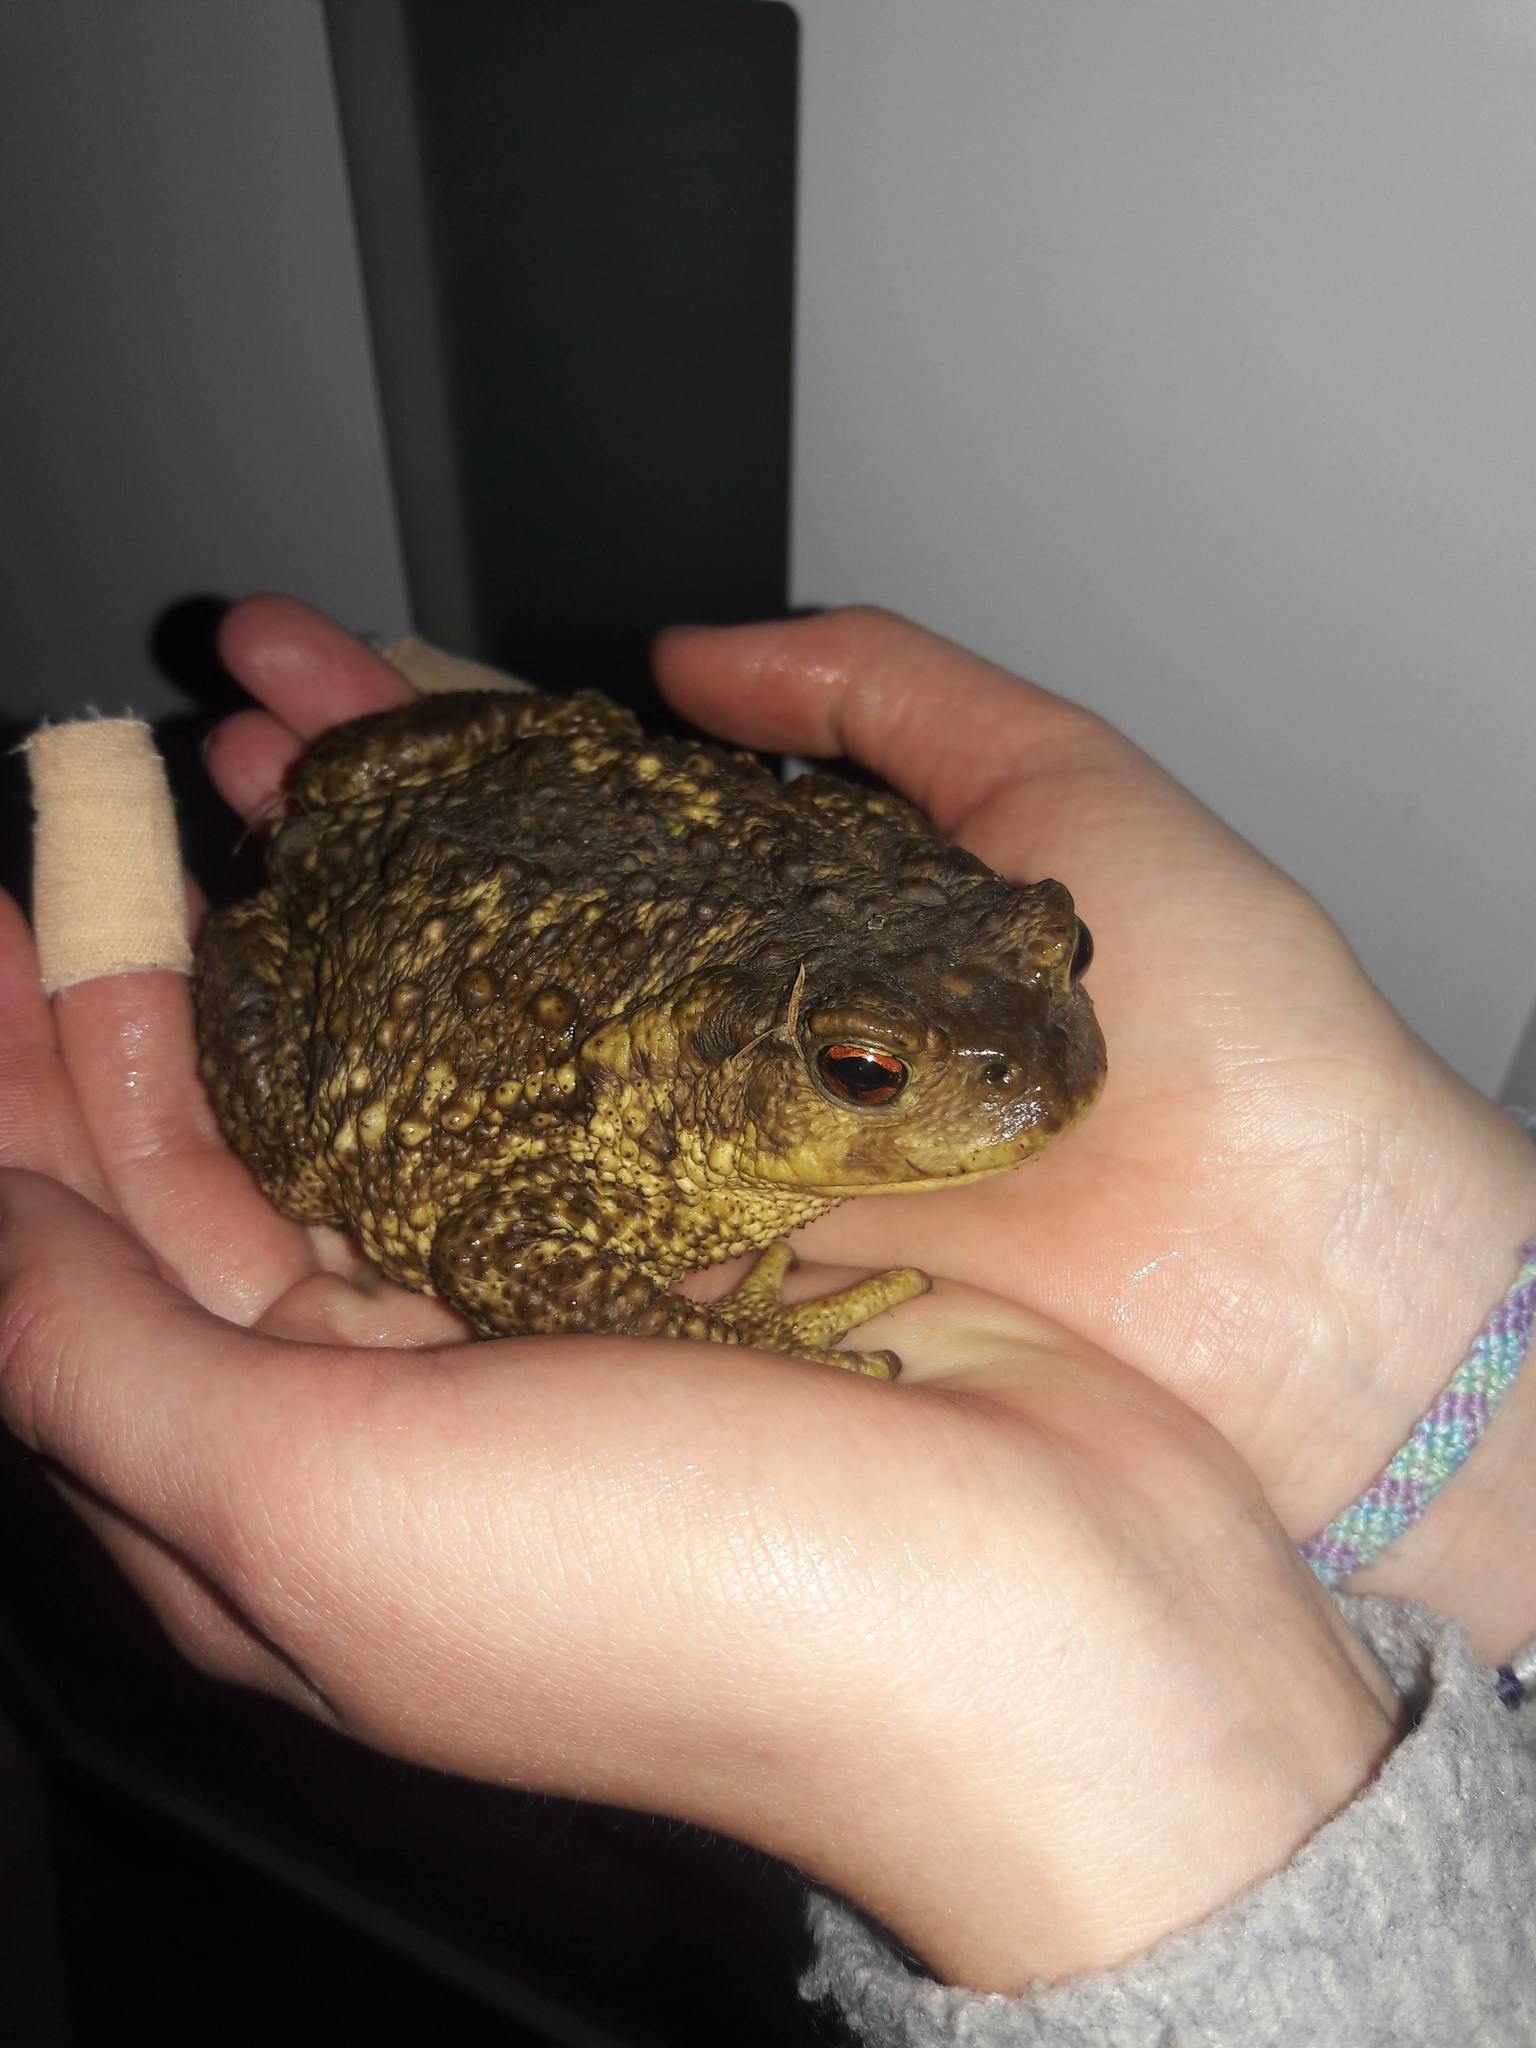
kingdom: Animalia
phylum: Chordata
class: Amphibia
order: Anura
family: Bufonidae
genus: Bufo
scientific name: Bufo spinosus
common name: Western common toad
